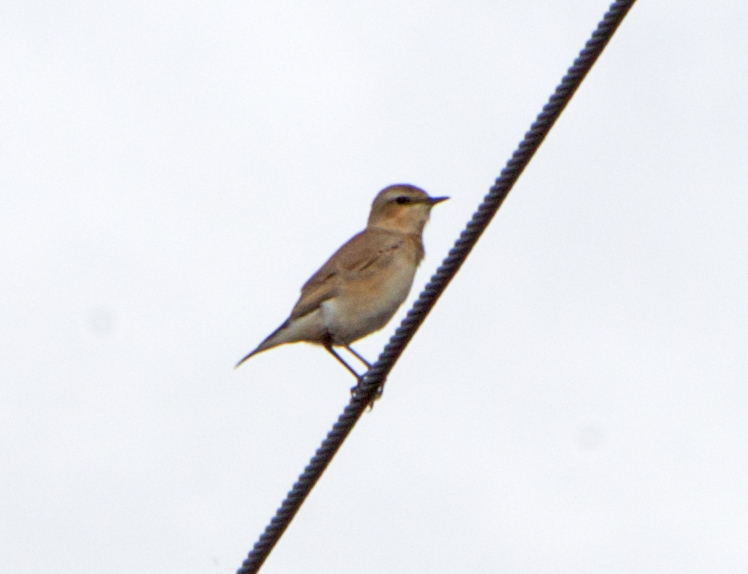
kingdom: Animalia
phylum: Chordata
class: Aves
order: Passeriformes
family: Muscicapidae
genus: Oenanthe
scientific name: Oenanthe oenanthe
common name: Northern wheatear
